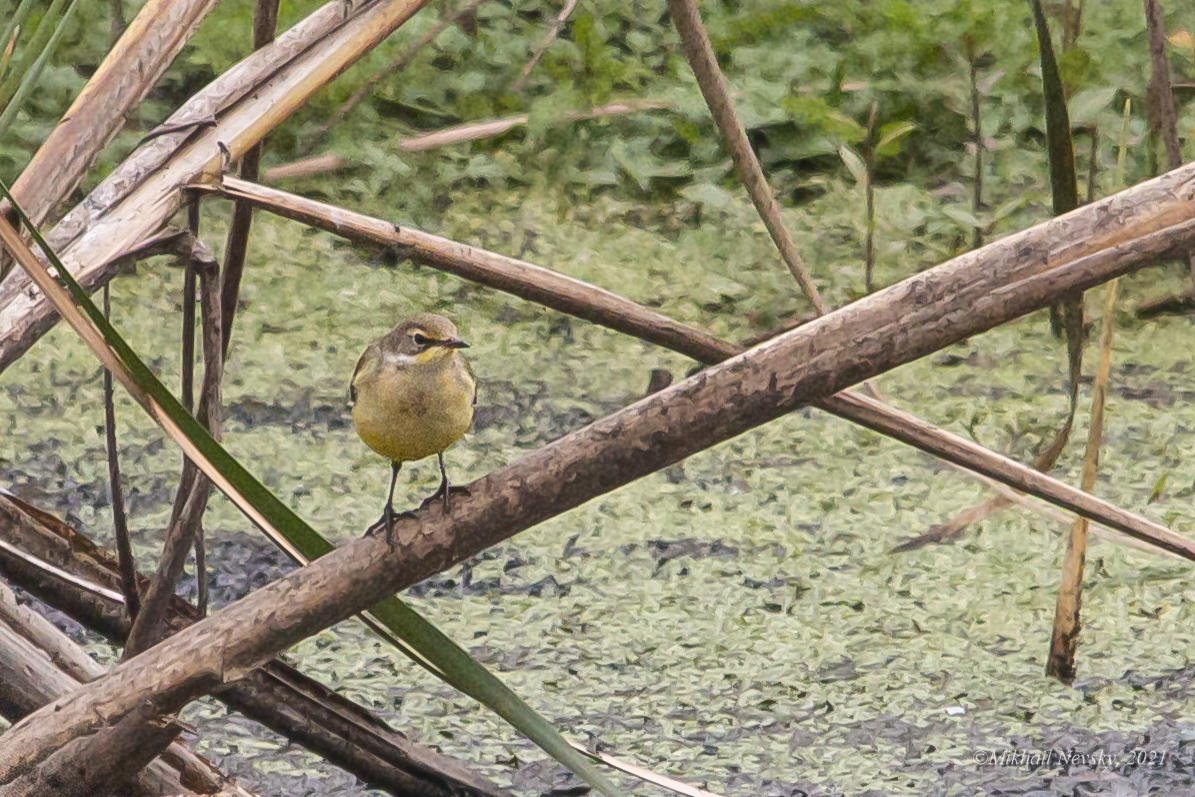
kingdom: Animalia
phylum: Chordata
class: Aves
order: Passeriformes
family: Motacillidae
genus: Motacilla
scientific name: Motacilla flava
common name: Western yellow wagtail
